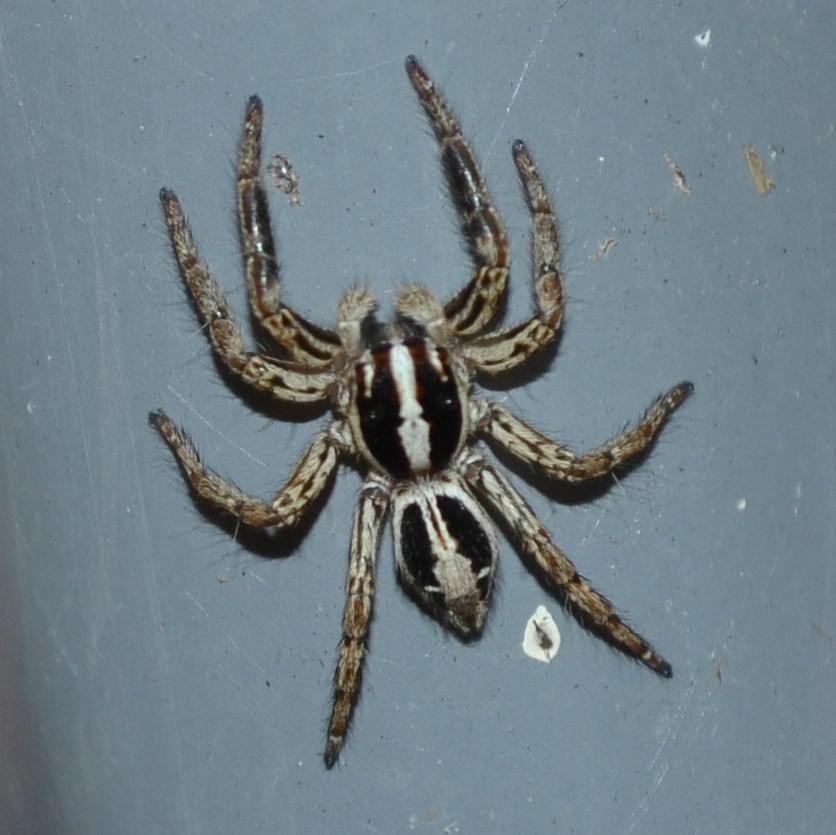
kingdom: Animalia
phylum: Arthropoda
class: Arachnida
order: Araneae
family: Salticidae
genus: Plexippus
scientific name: Plexippus paykulli
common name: Pantropical jumper
